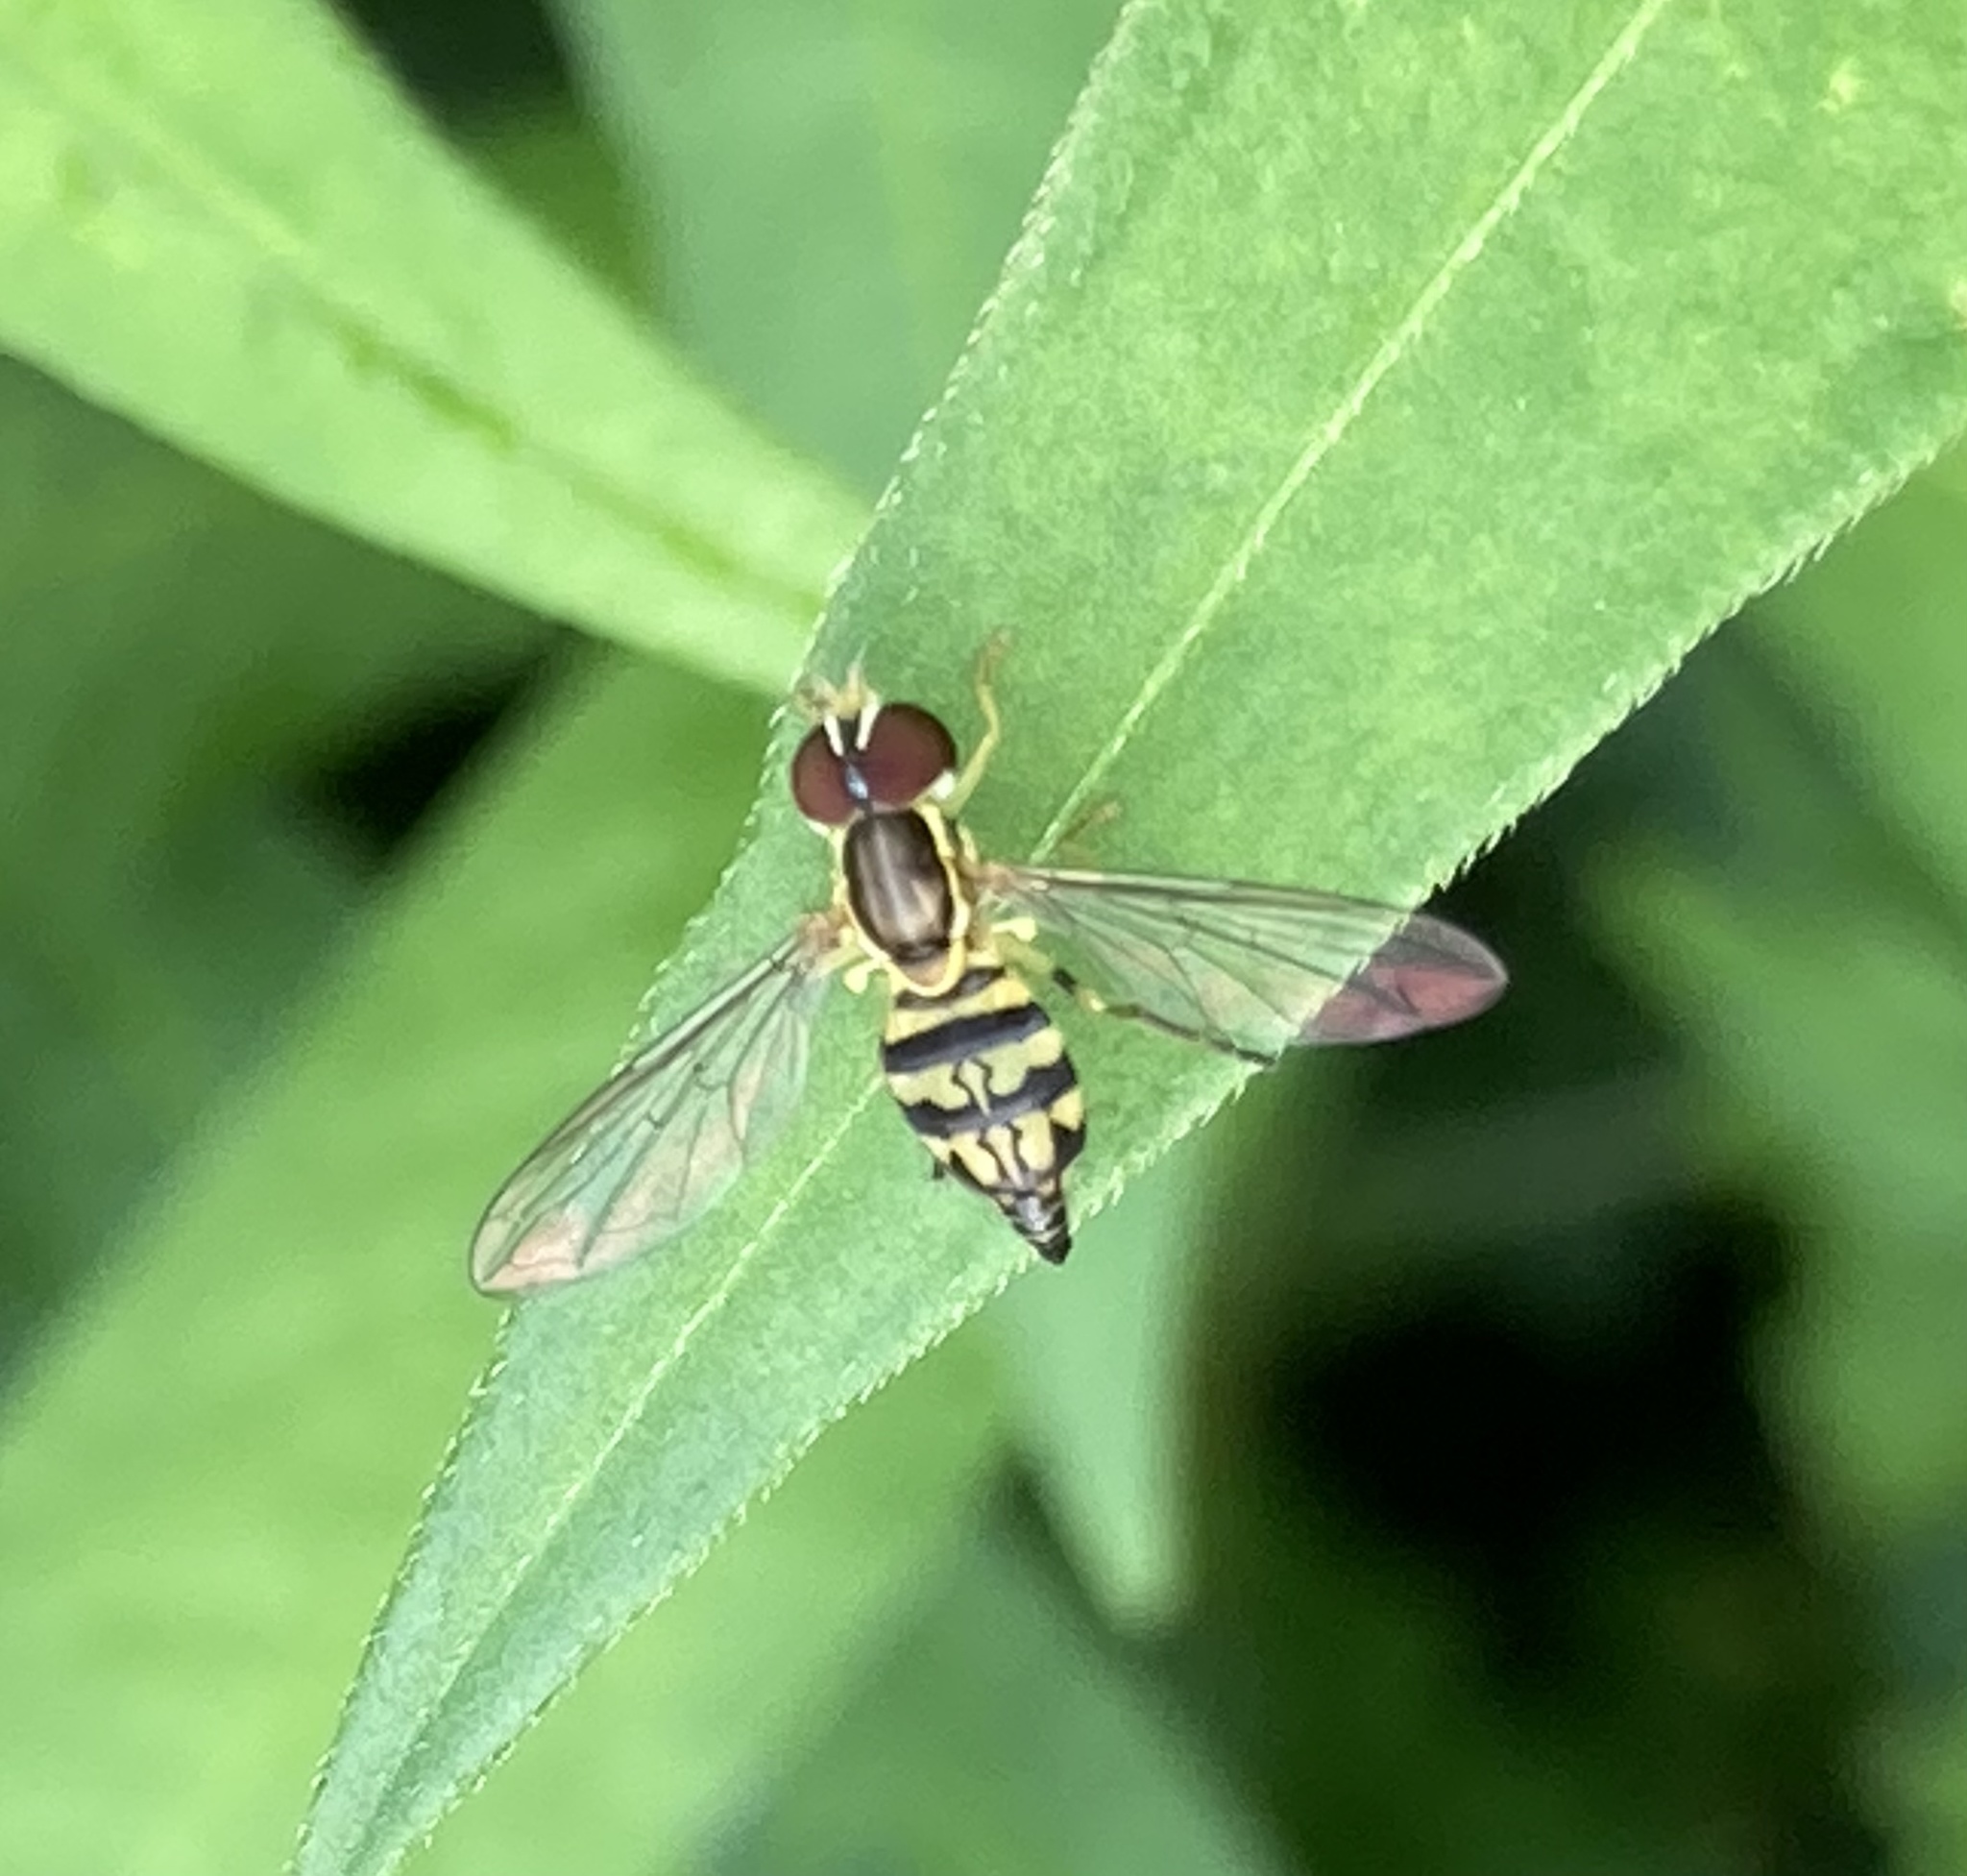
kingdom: Animalia
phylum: Arthropoda
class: Insecta
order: Diptera
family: Syrphidae
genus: Toxomerus
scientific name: Toxomerus geminatus
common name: Eastern calligrapher
